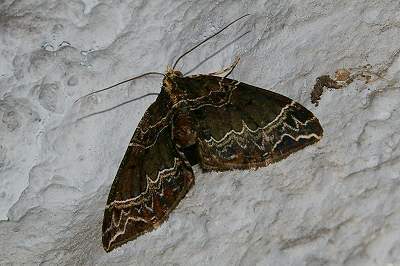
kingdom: Animalia
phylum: Arthropoda
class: Insecta
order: Lepidoptera
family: Geometridae
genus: Ecliptopera
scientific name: Ecliptopera umbrosaria
